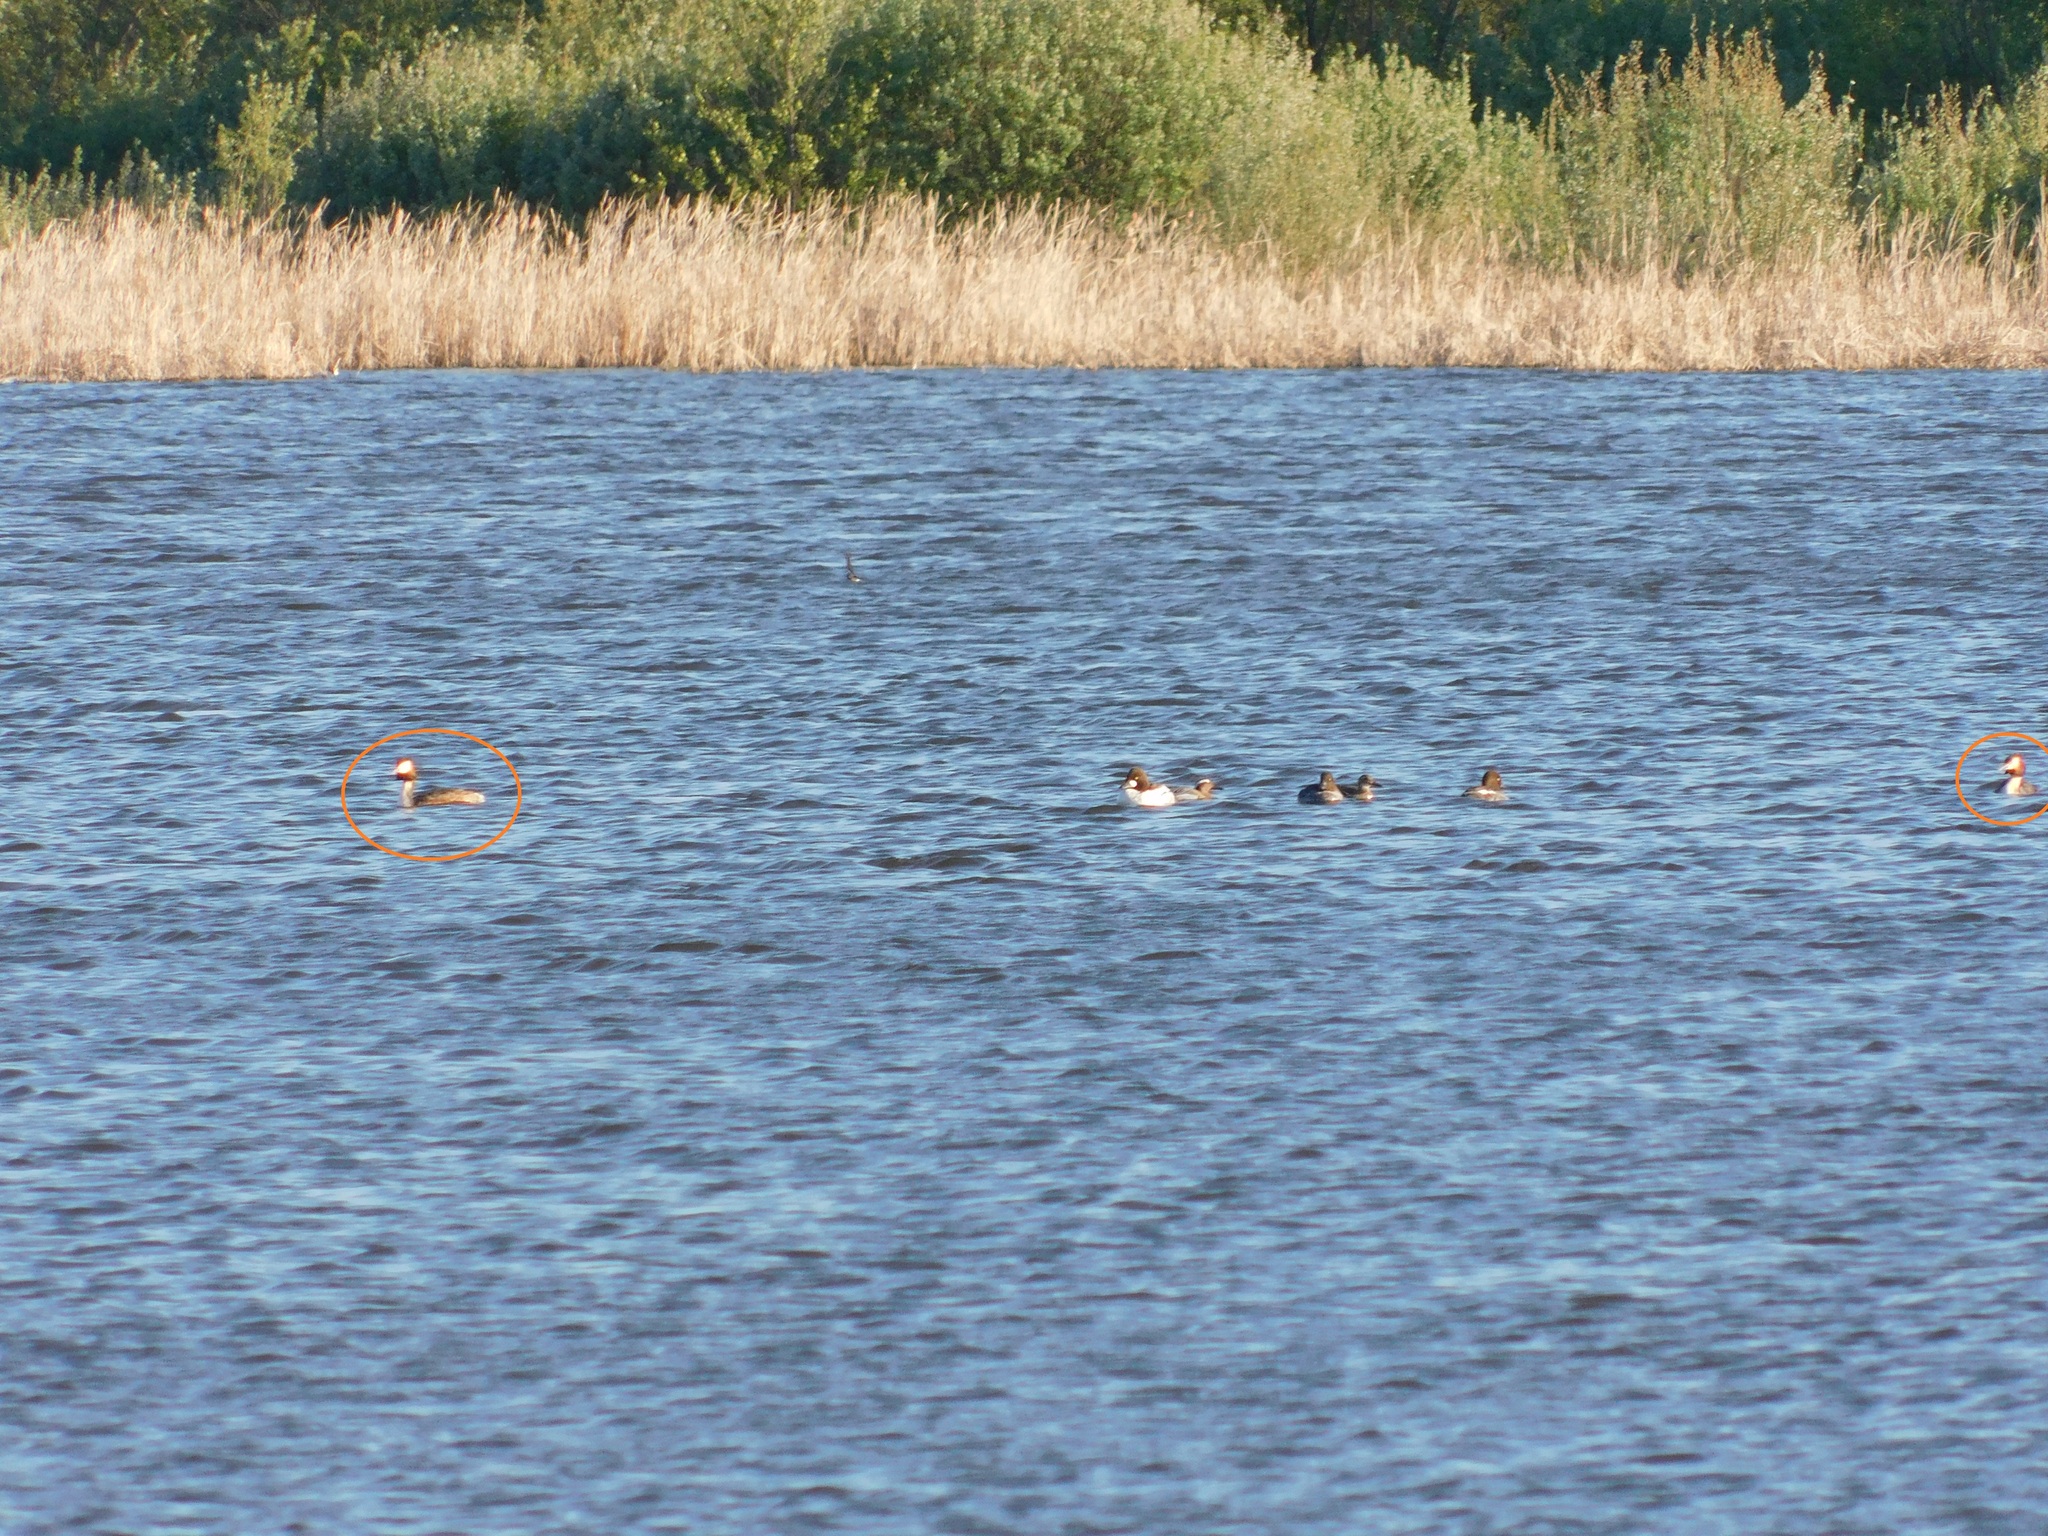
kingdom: Animalia
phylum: Chordata
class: Aves
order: Podicipediformes
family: Podicipedidae
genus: Podiceps
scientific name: Podiceps cristatus
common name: Great crested grebe
